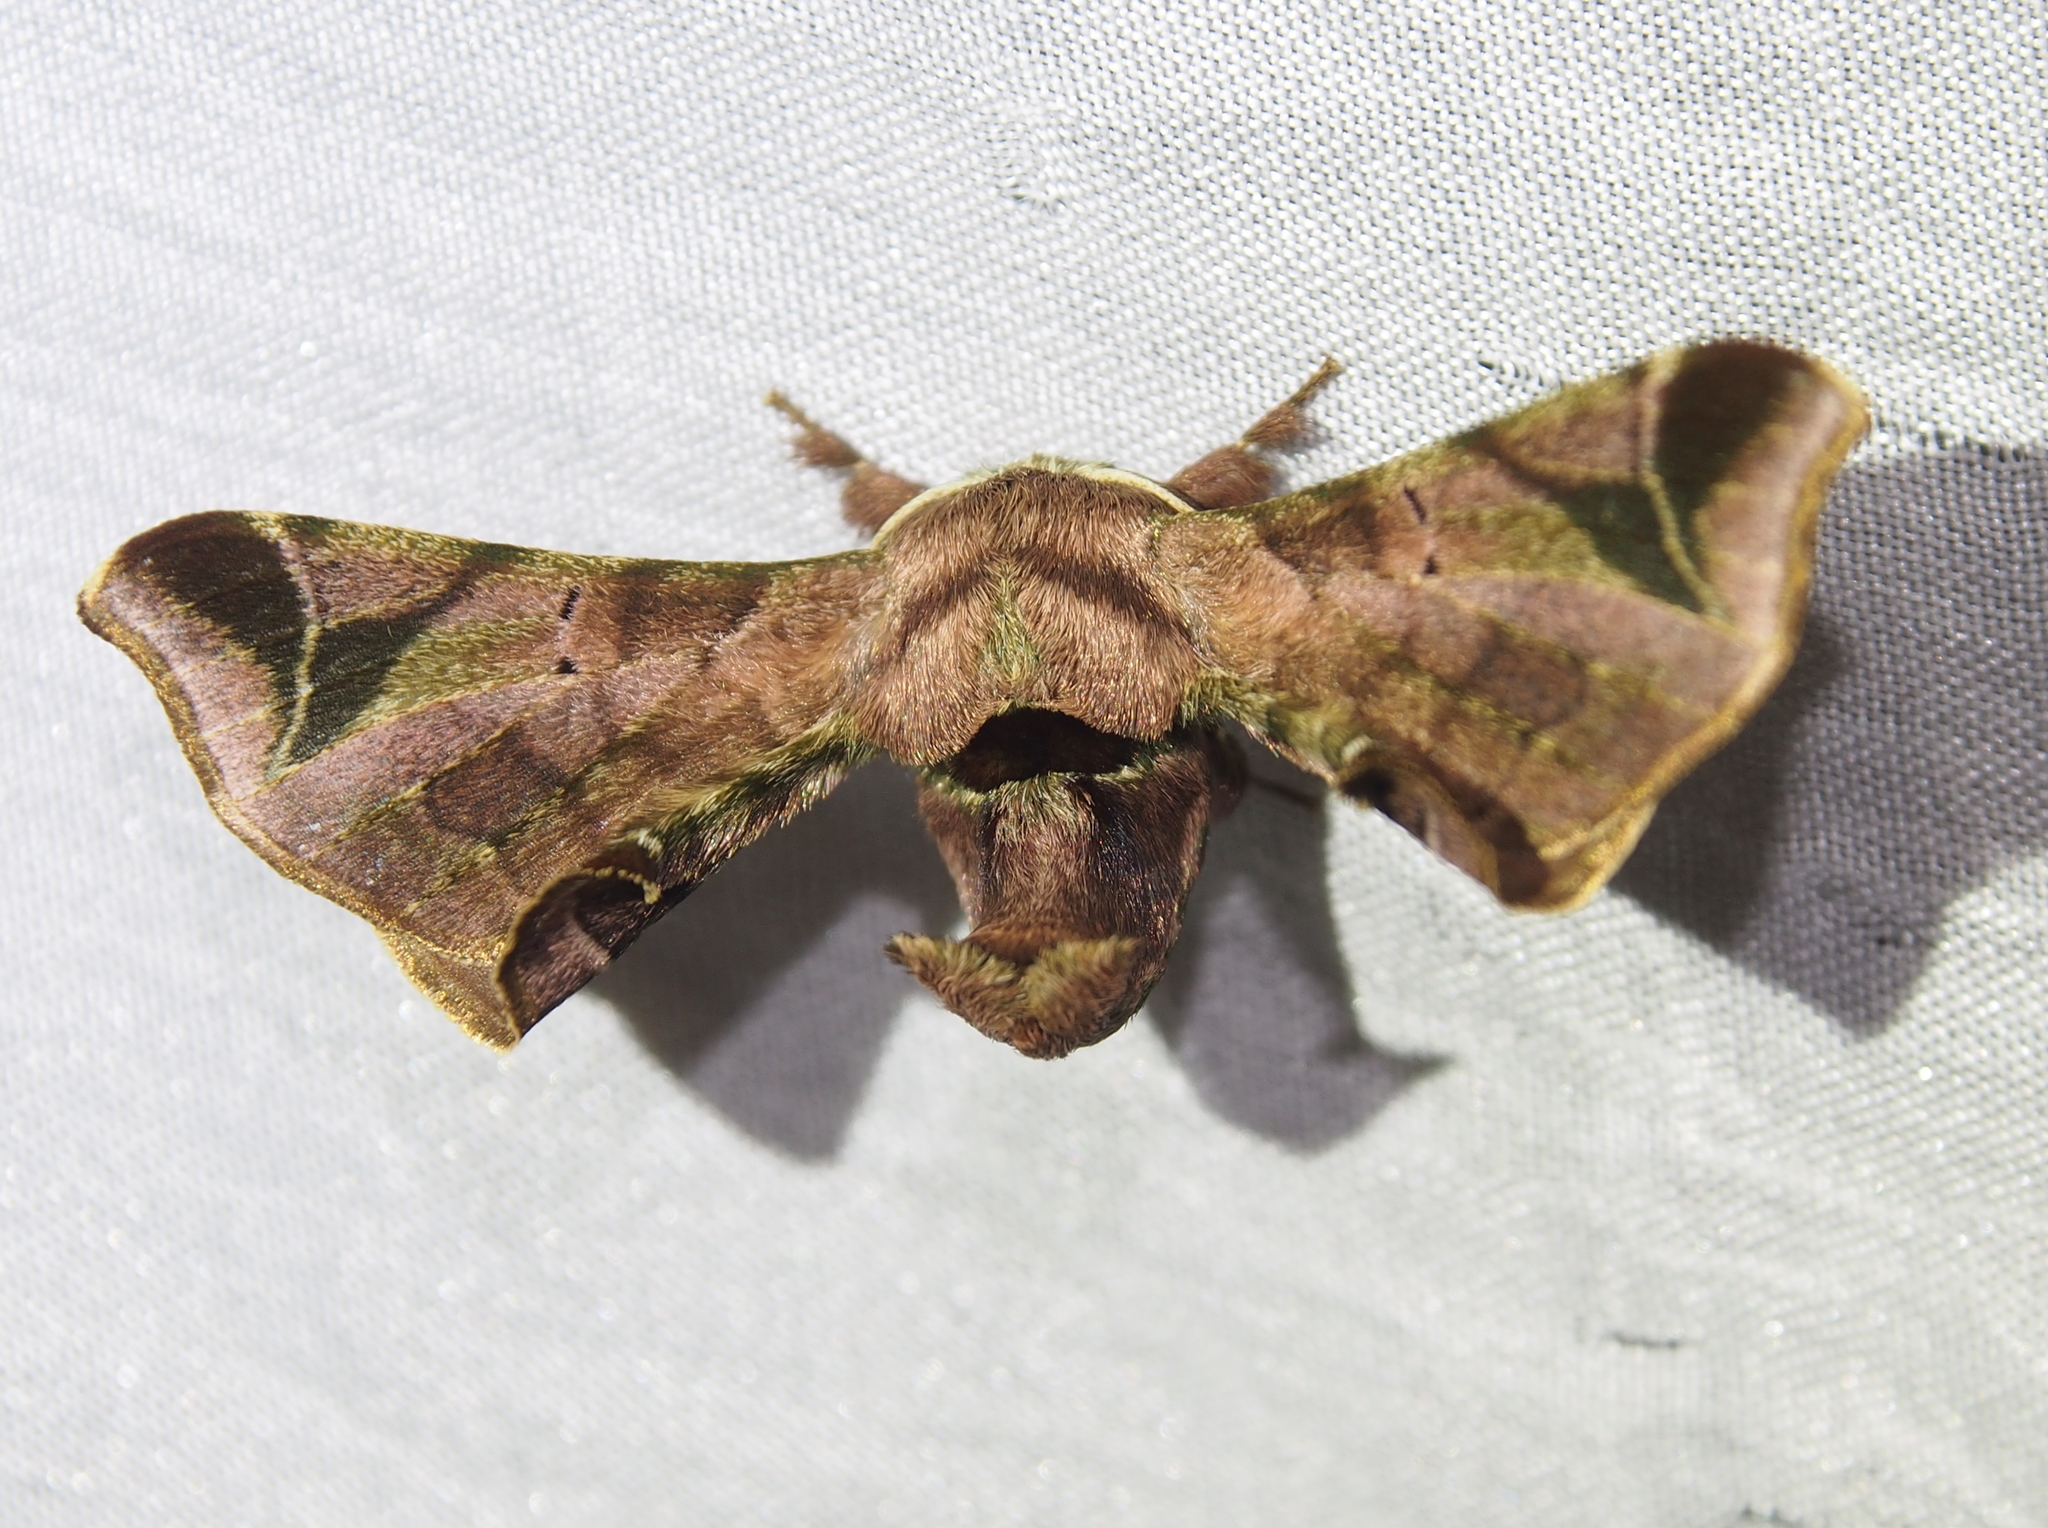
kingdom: Animalia
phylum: Arthropoda
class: Insecta
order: Lepidoptera
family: Bombycidae
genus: Quentalia
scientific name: Quentalia numalia
